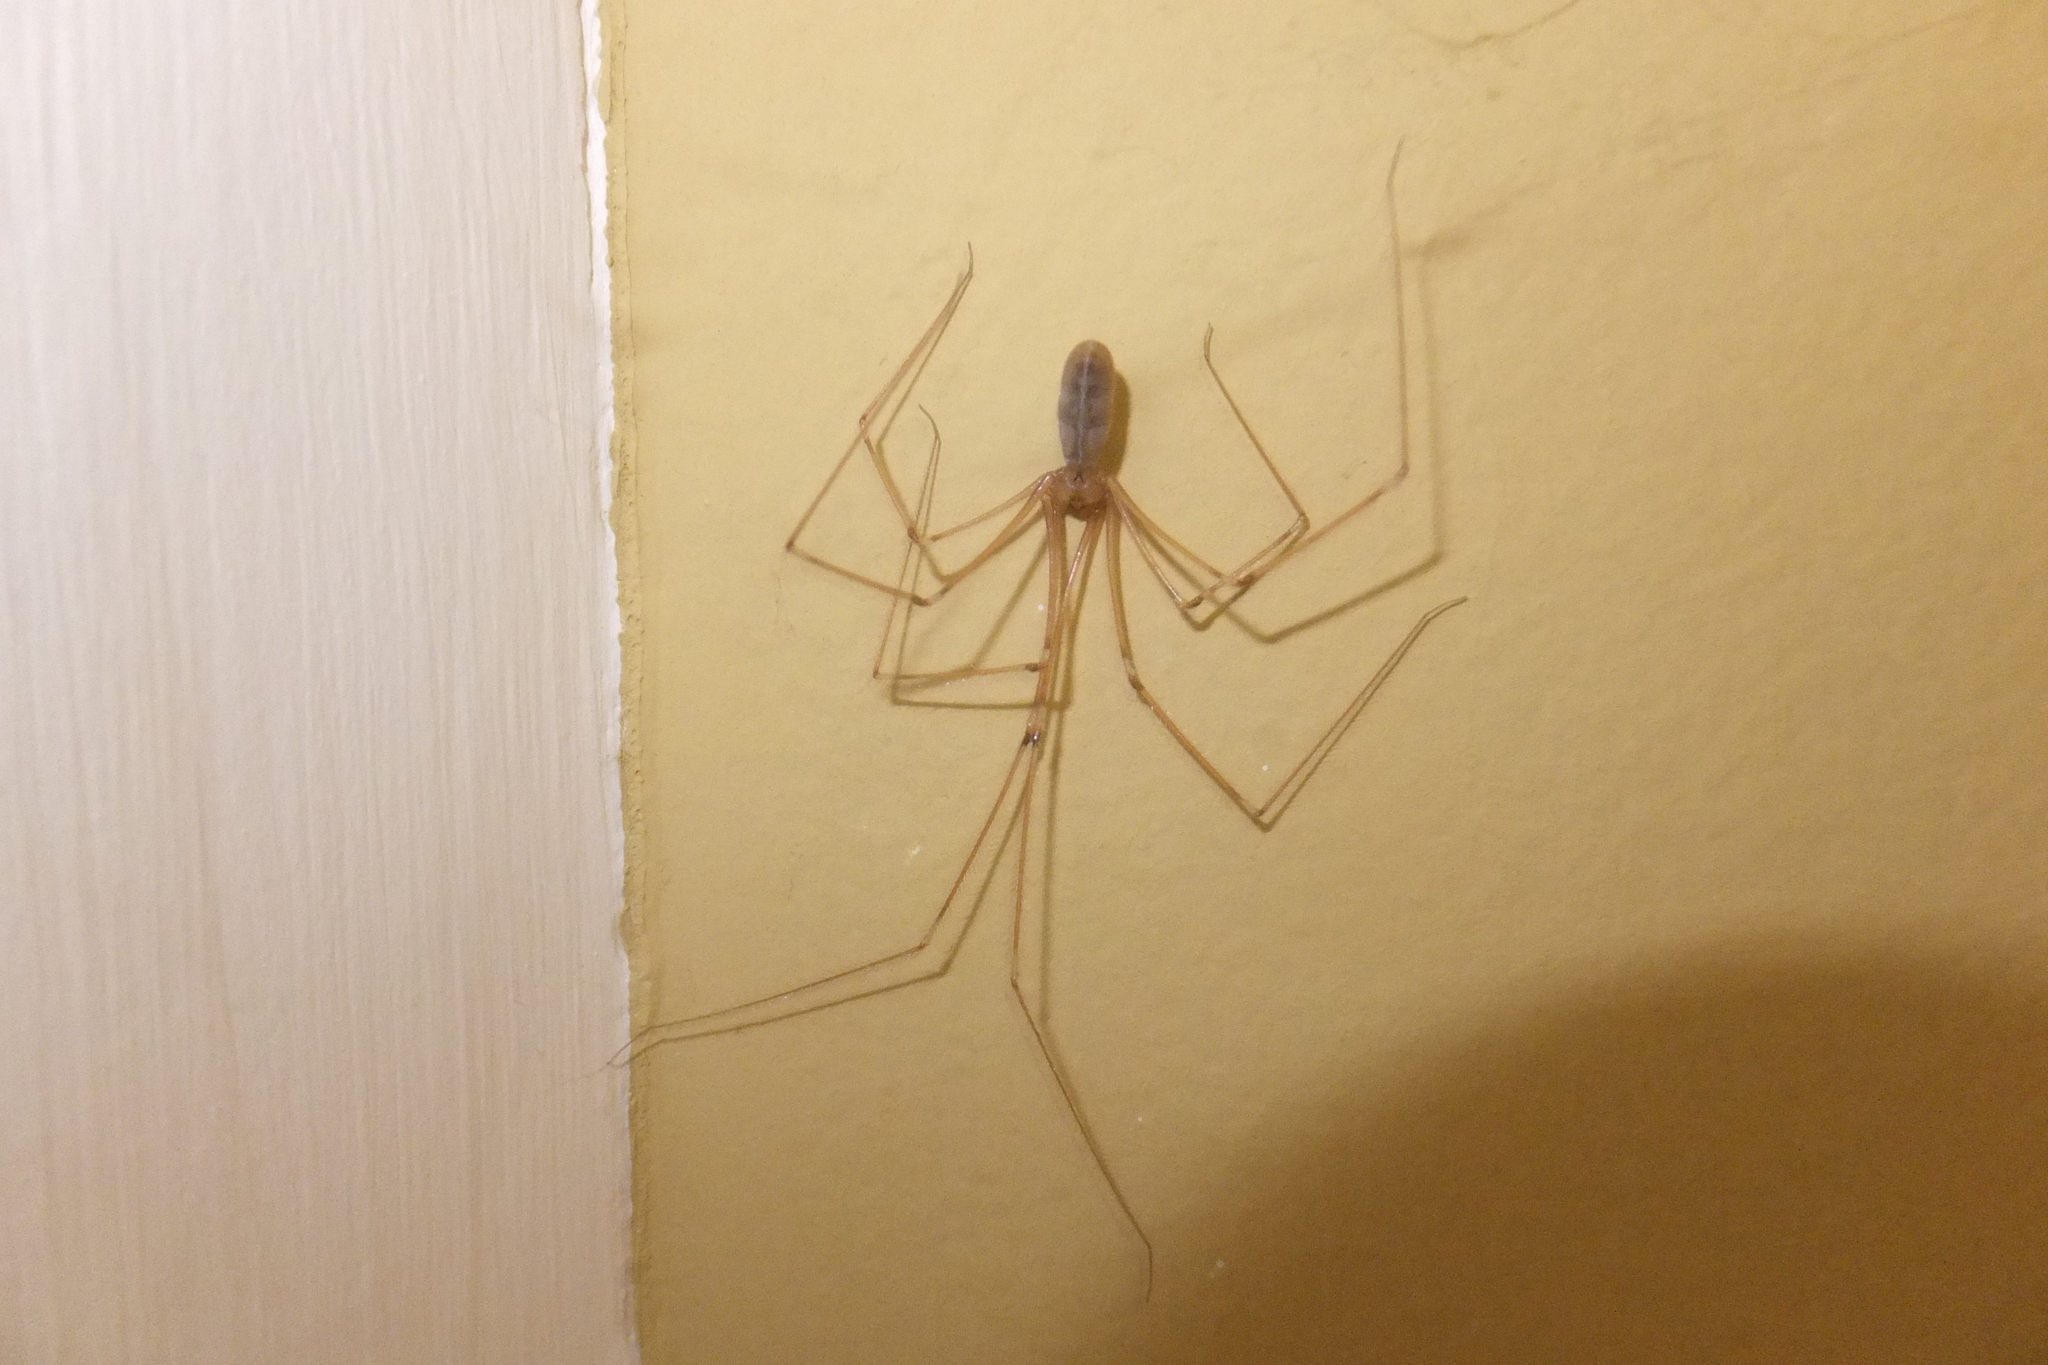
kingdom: Animalia
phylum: Arthropoda
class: Arachnida
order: Araneae
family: Pholcidae
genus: Pholcus
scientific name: Pholcus phalangioides
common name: Longbodied cellar spider
